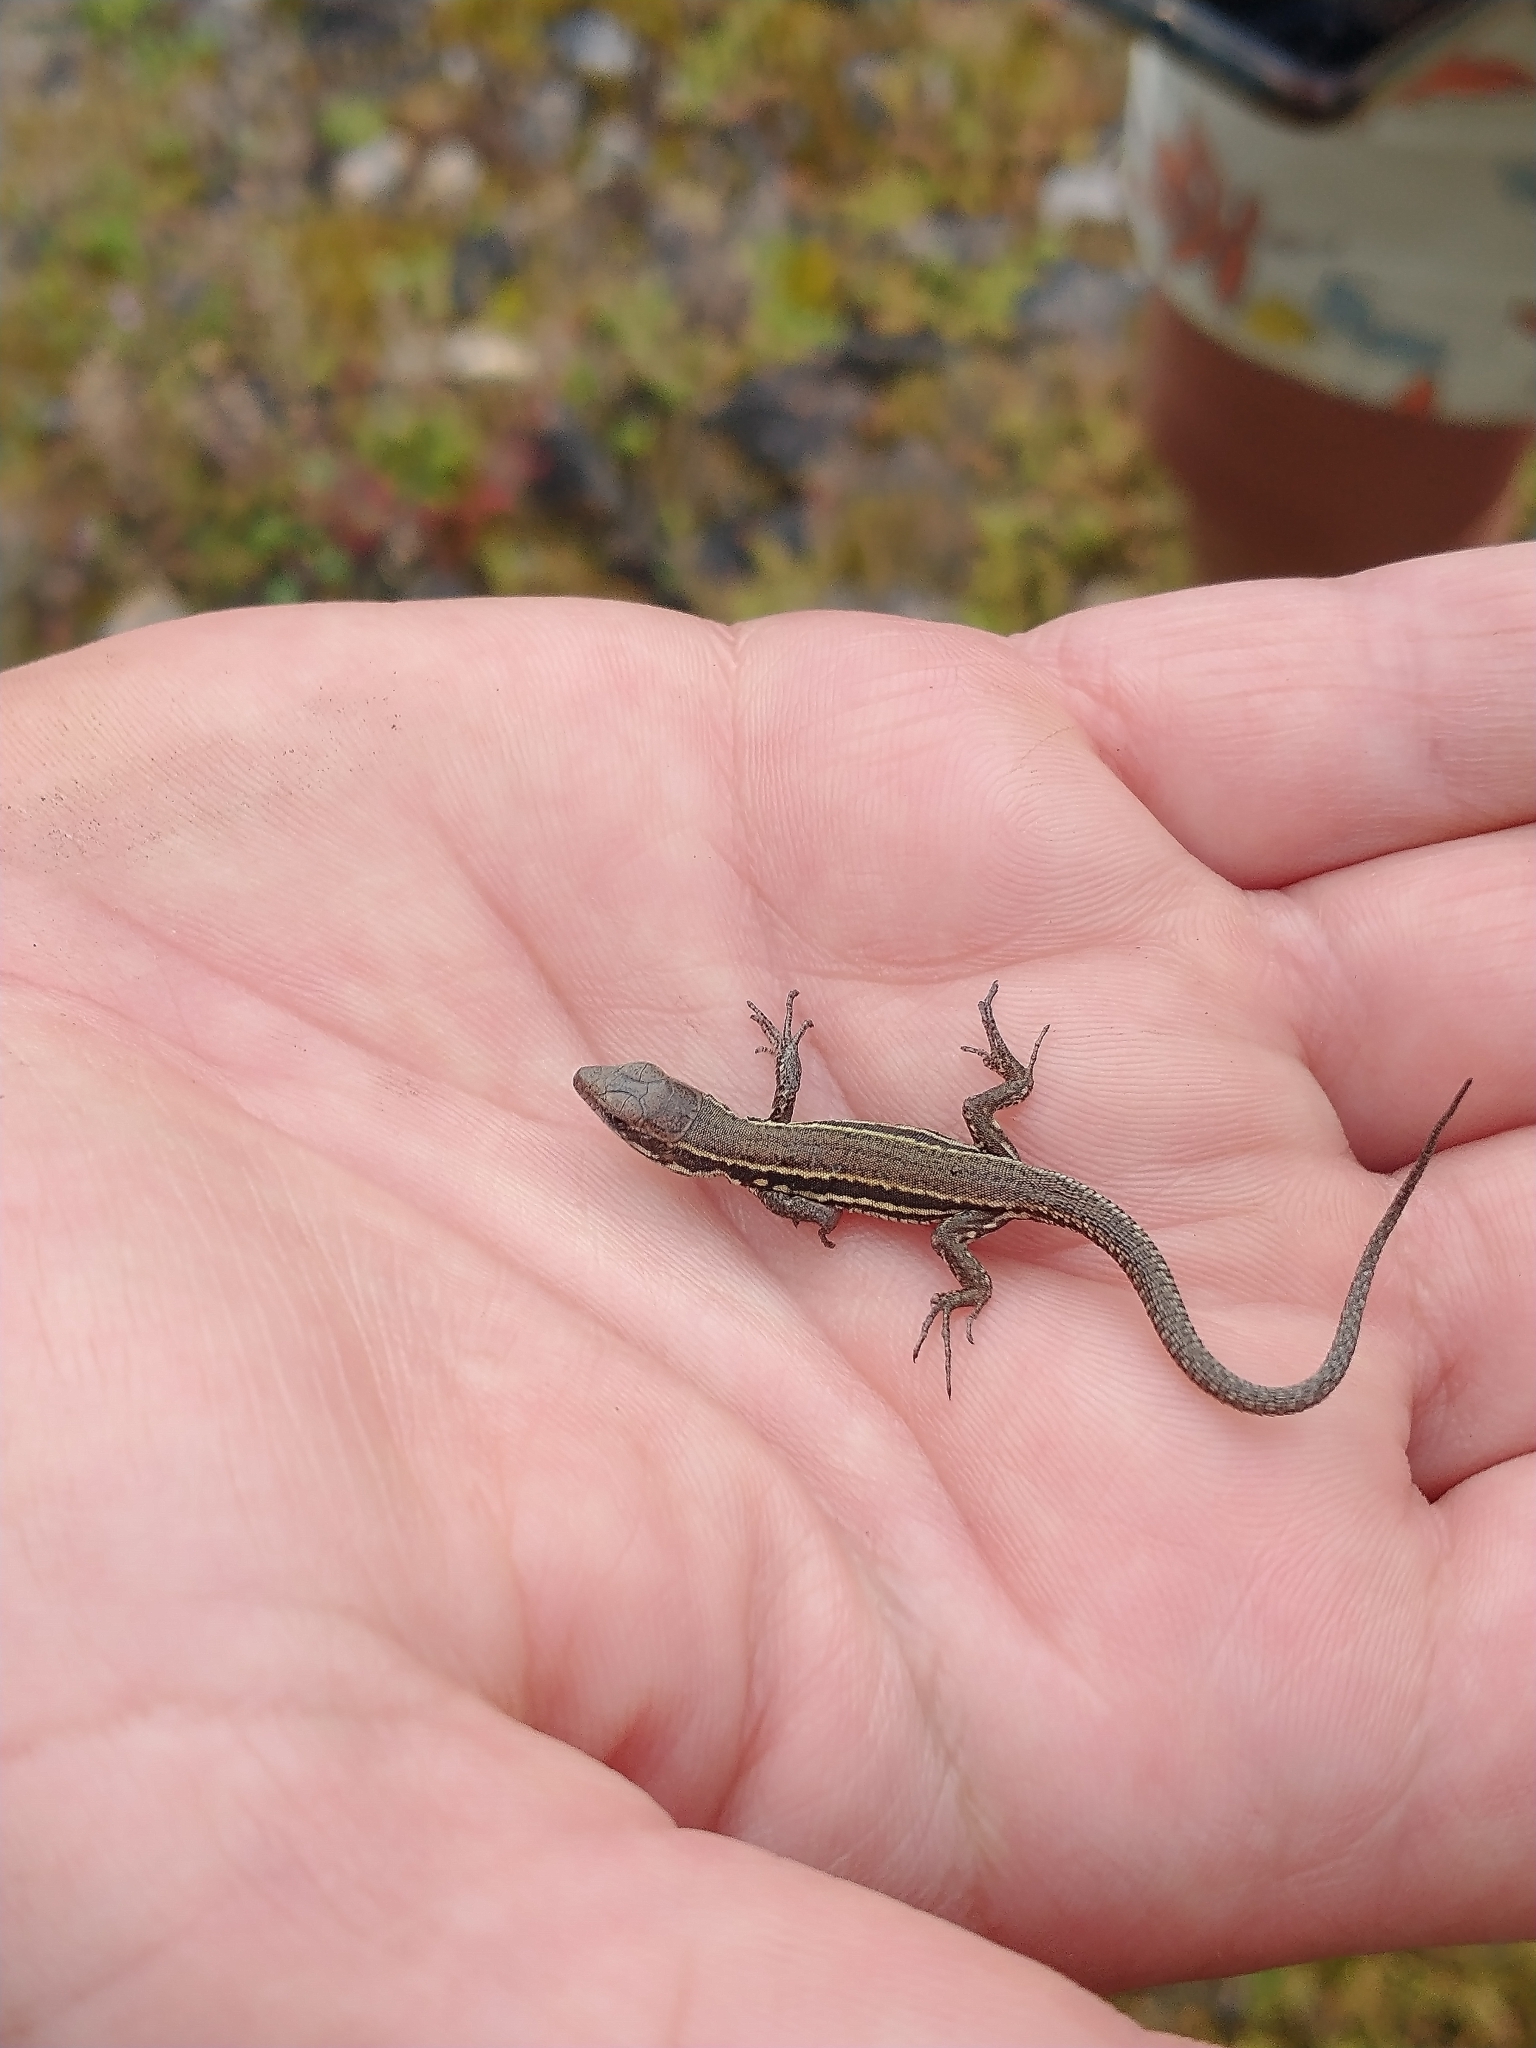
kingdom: Animalia
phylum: Chordata
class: Squamata
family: Lacertidae
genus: Podarcis
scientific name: Podarcis muralis
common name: Common wall lizard
